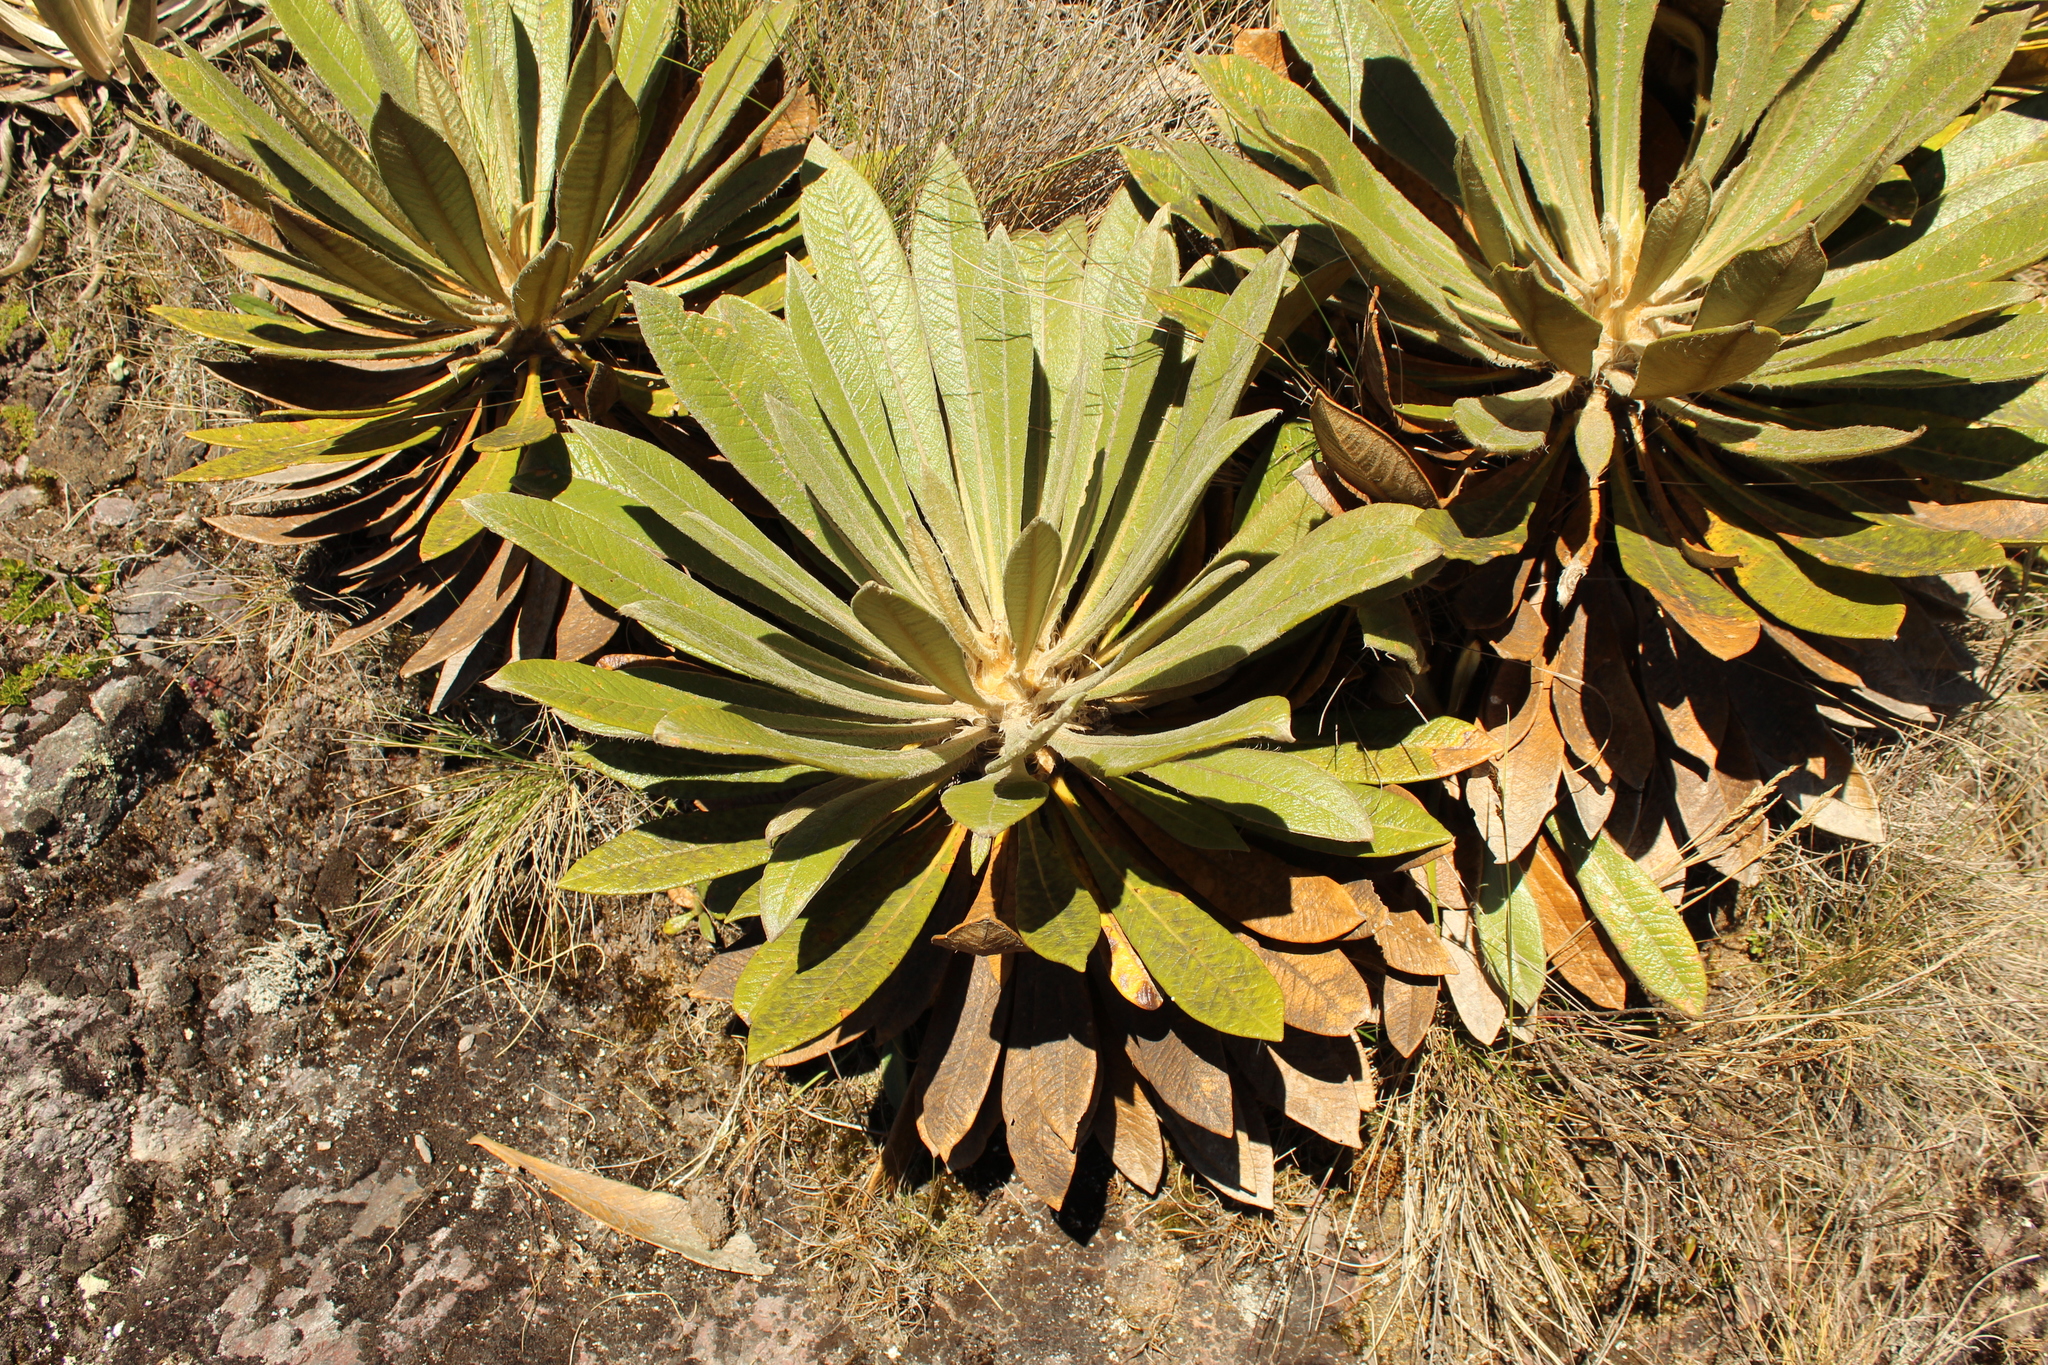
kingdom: Plantae
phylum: Tracheophyta
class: Magnoliopsida
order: Asterales
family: Asteraceae
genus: Espeletia
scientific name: Espeletia guacharaca
